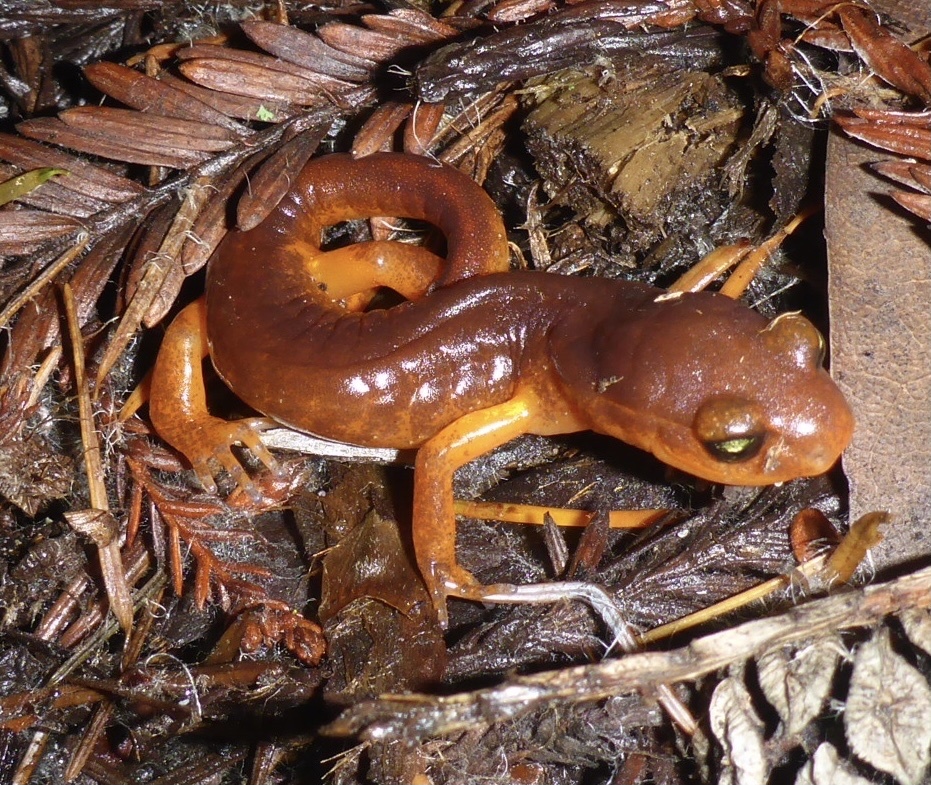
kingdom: Animalia
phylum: Chordata
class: Amphibia
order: Caudata
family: Plethodontidae
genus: Ensatina
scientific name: Ensatina eschscholtzii
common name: Ensatina
